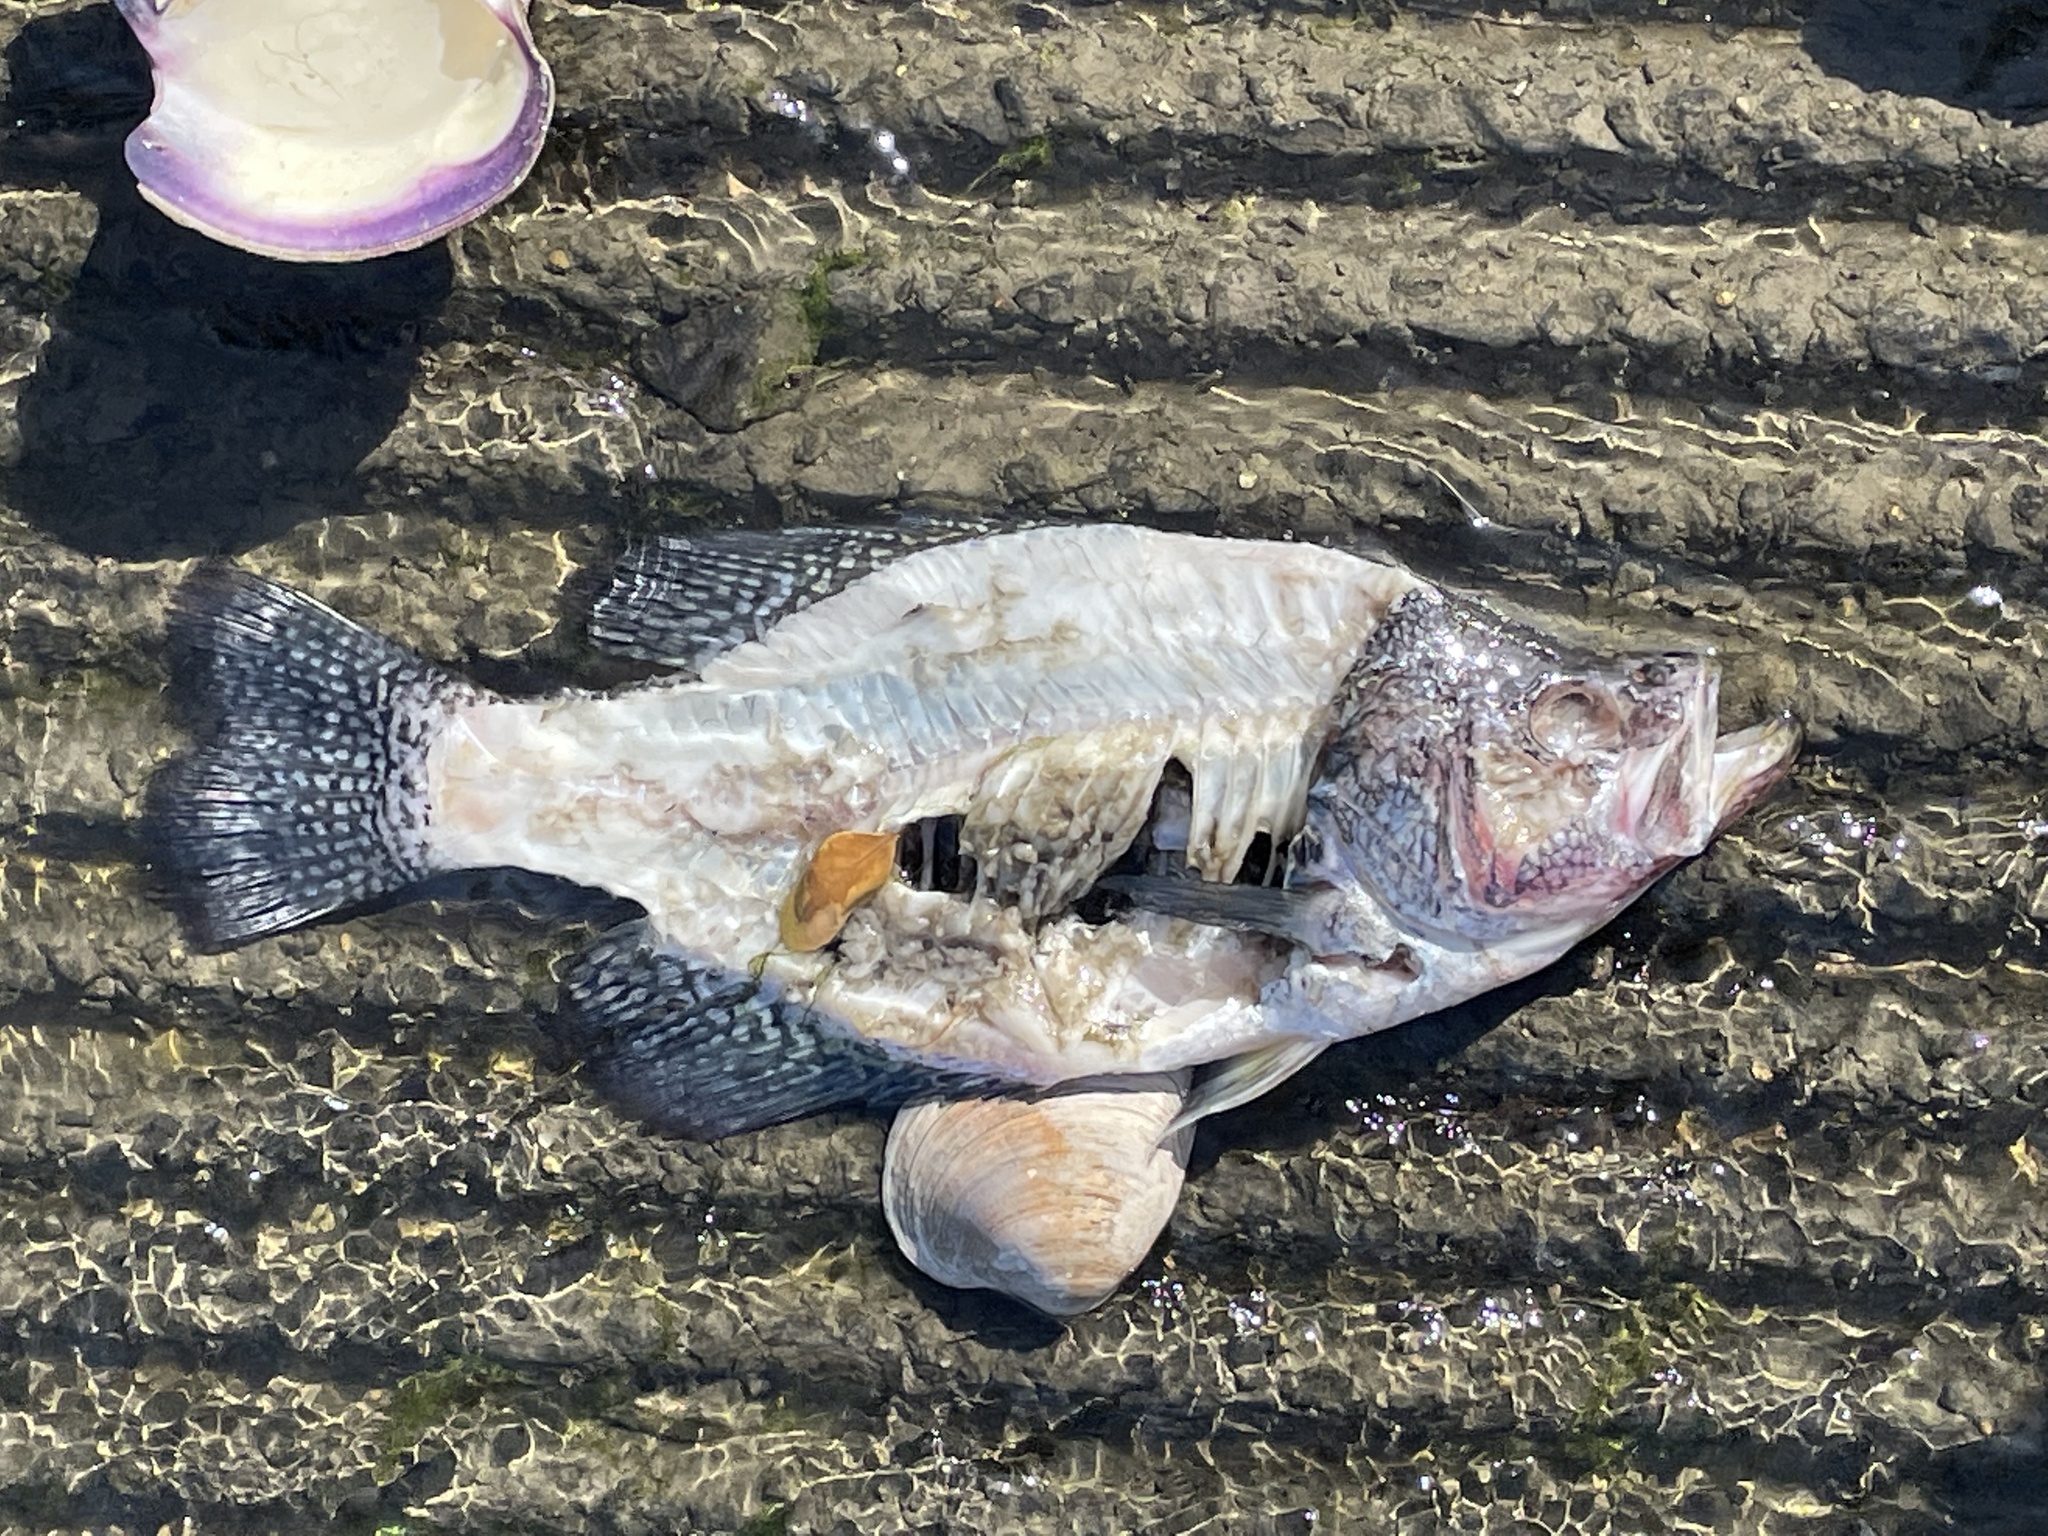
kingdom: Animalia
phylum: Chordata
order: Perciformes
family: Centrarchidae
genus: Pomoxis
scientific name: Pomoxis nigromaculatus
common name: Black crappie
